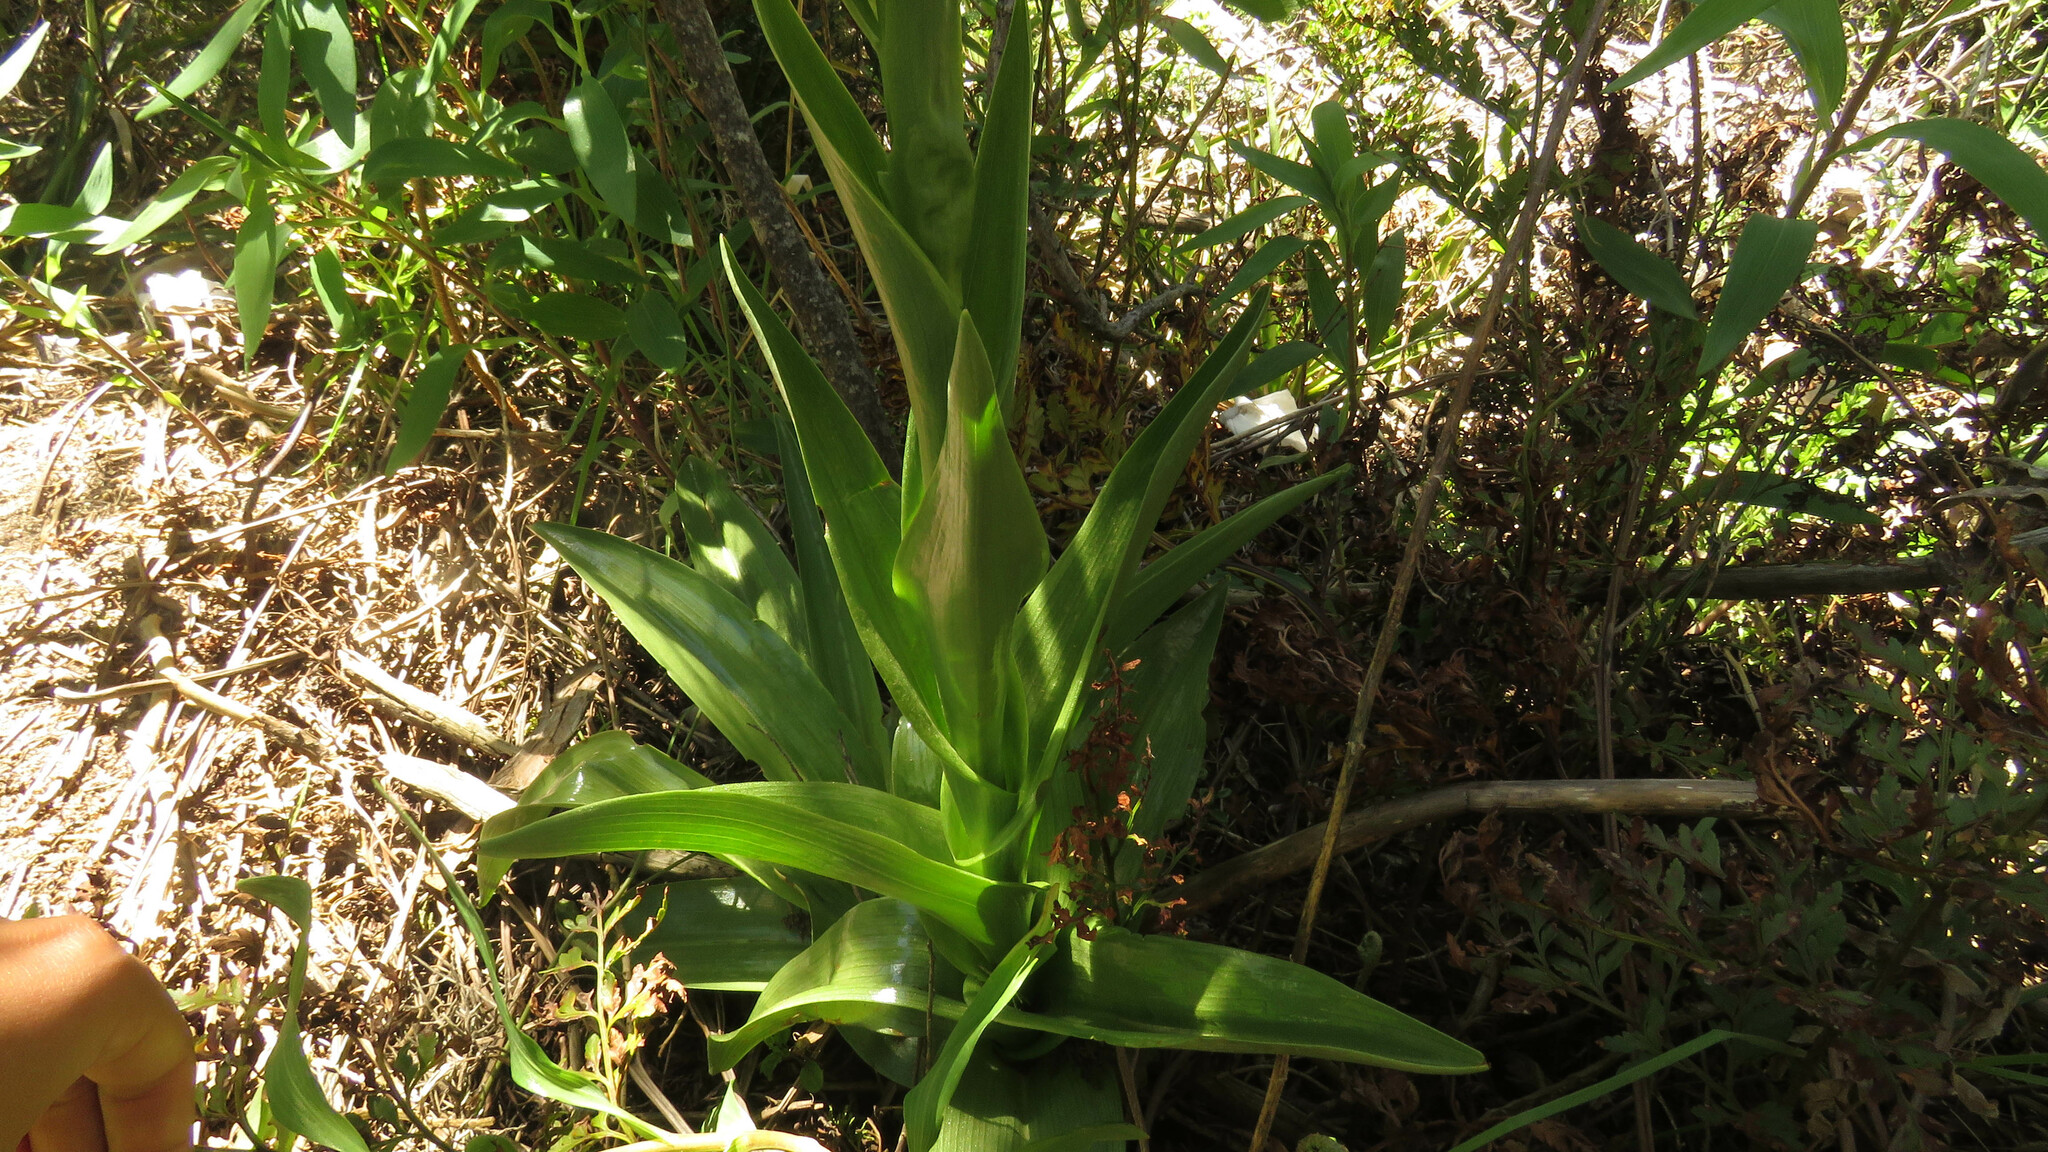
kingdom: Plantae
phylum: Tracheophyta
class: Liliopsida
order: Asparagales
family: Orchidaceae
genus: Chloraea
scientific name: Chloraea cylindrostachya
